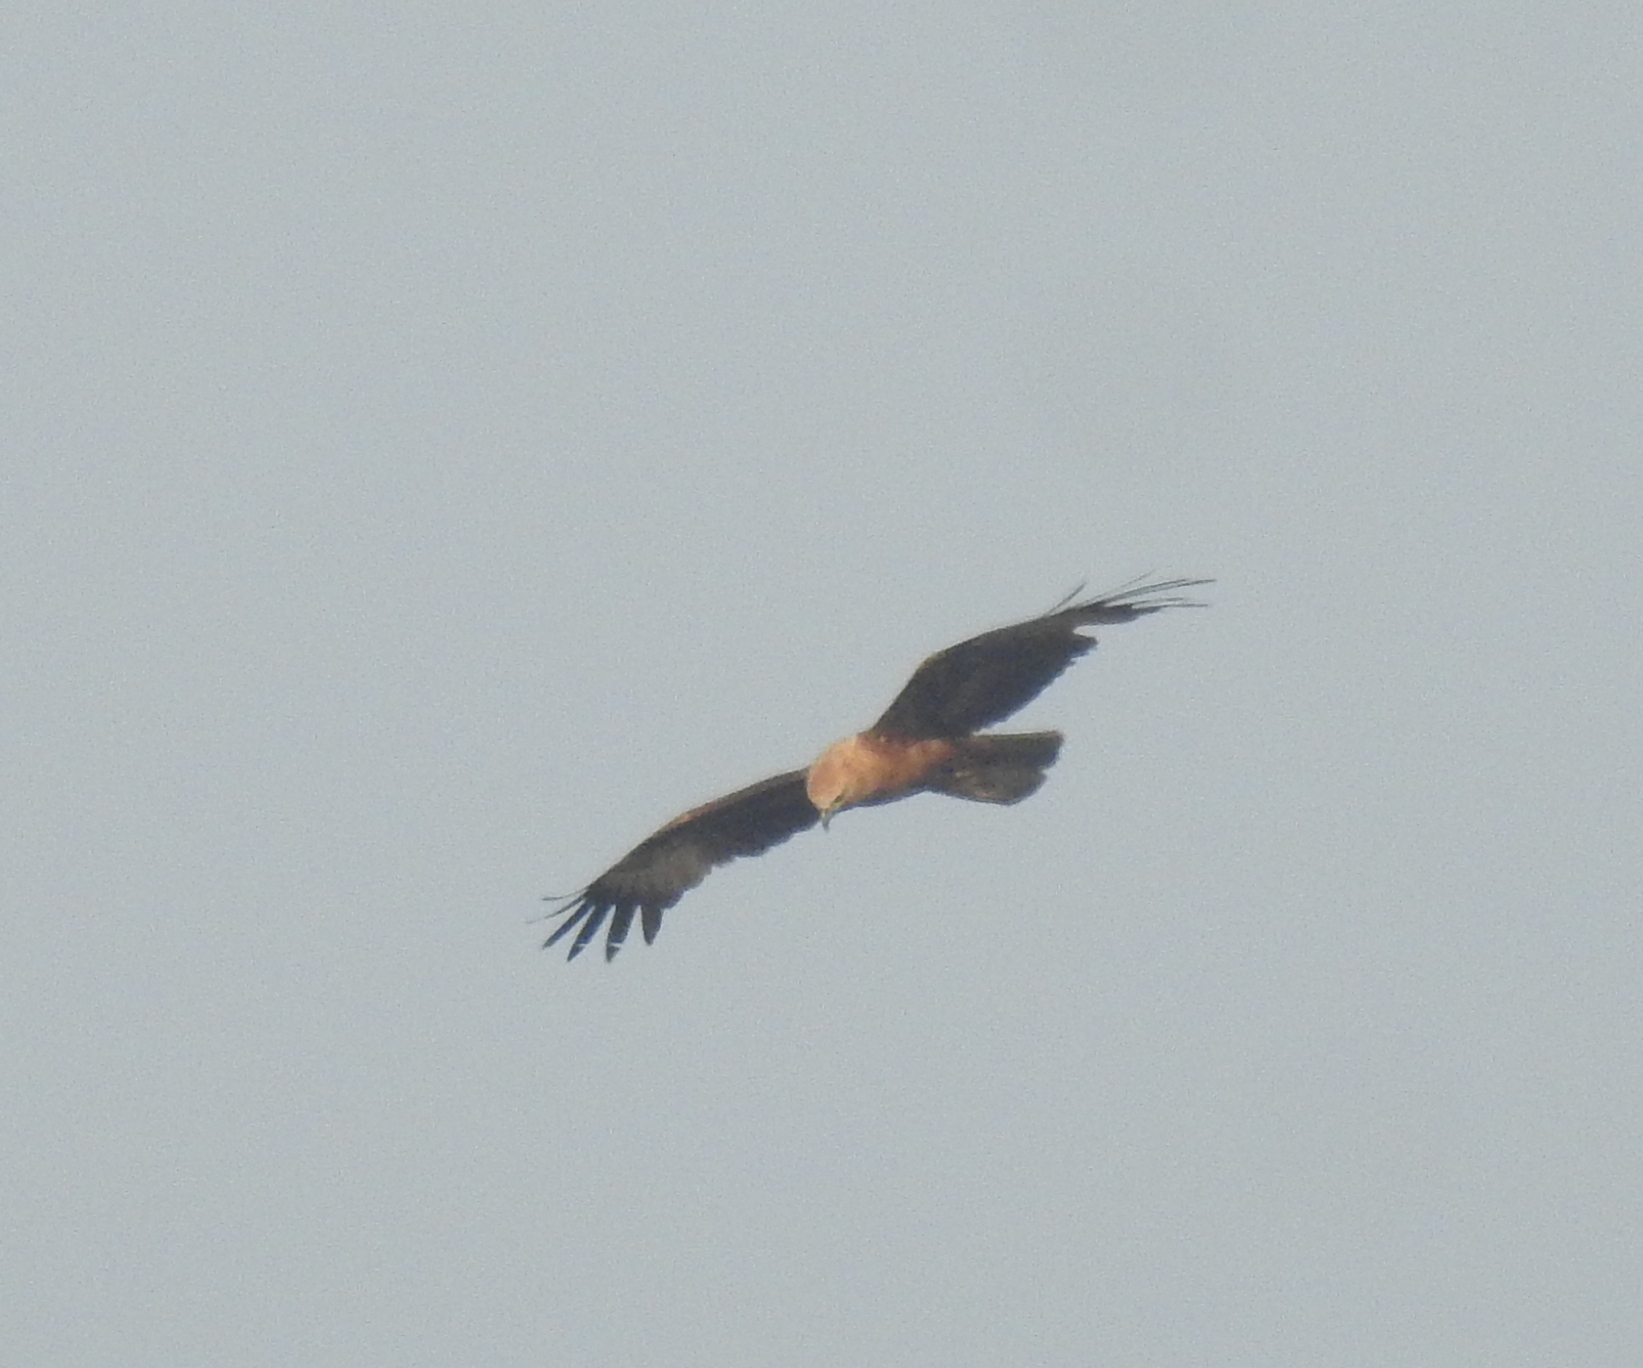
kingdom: Animalia
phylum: Chordata
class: Aves
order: Accipitriformes
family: Accipitridae
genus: Haliastur
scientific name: Haliastur indus
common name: Brahminy kite
